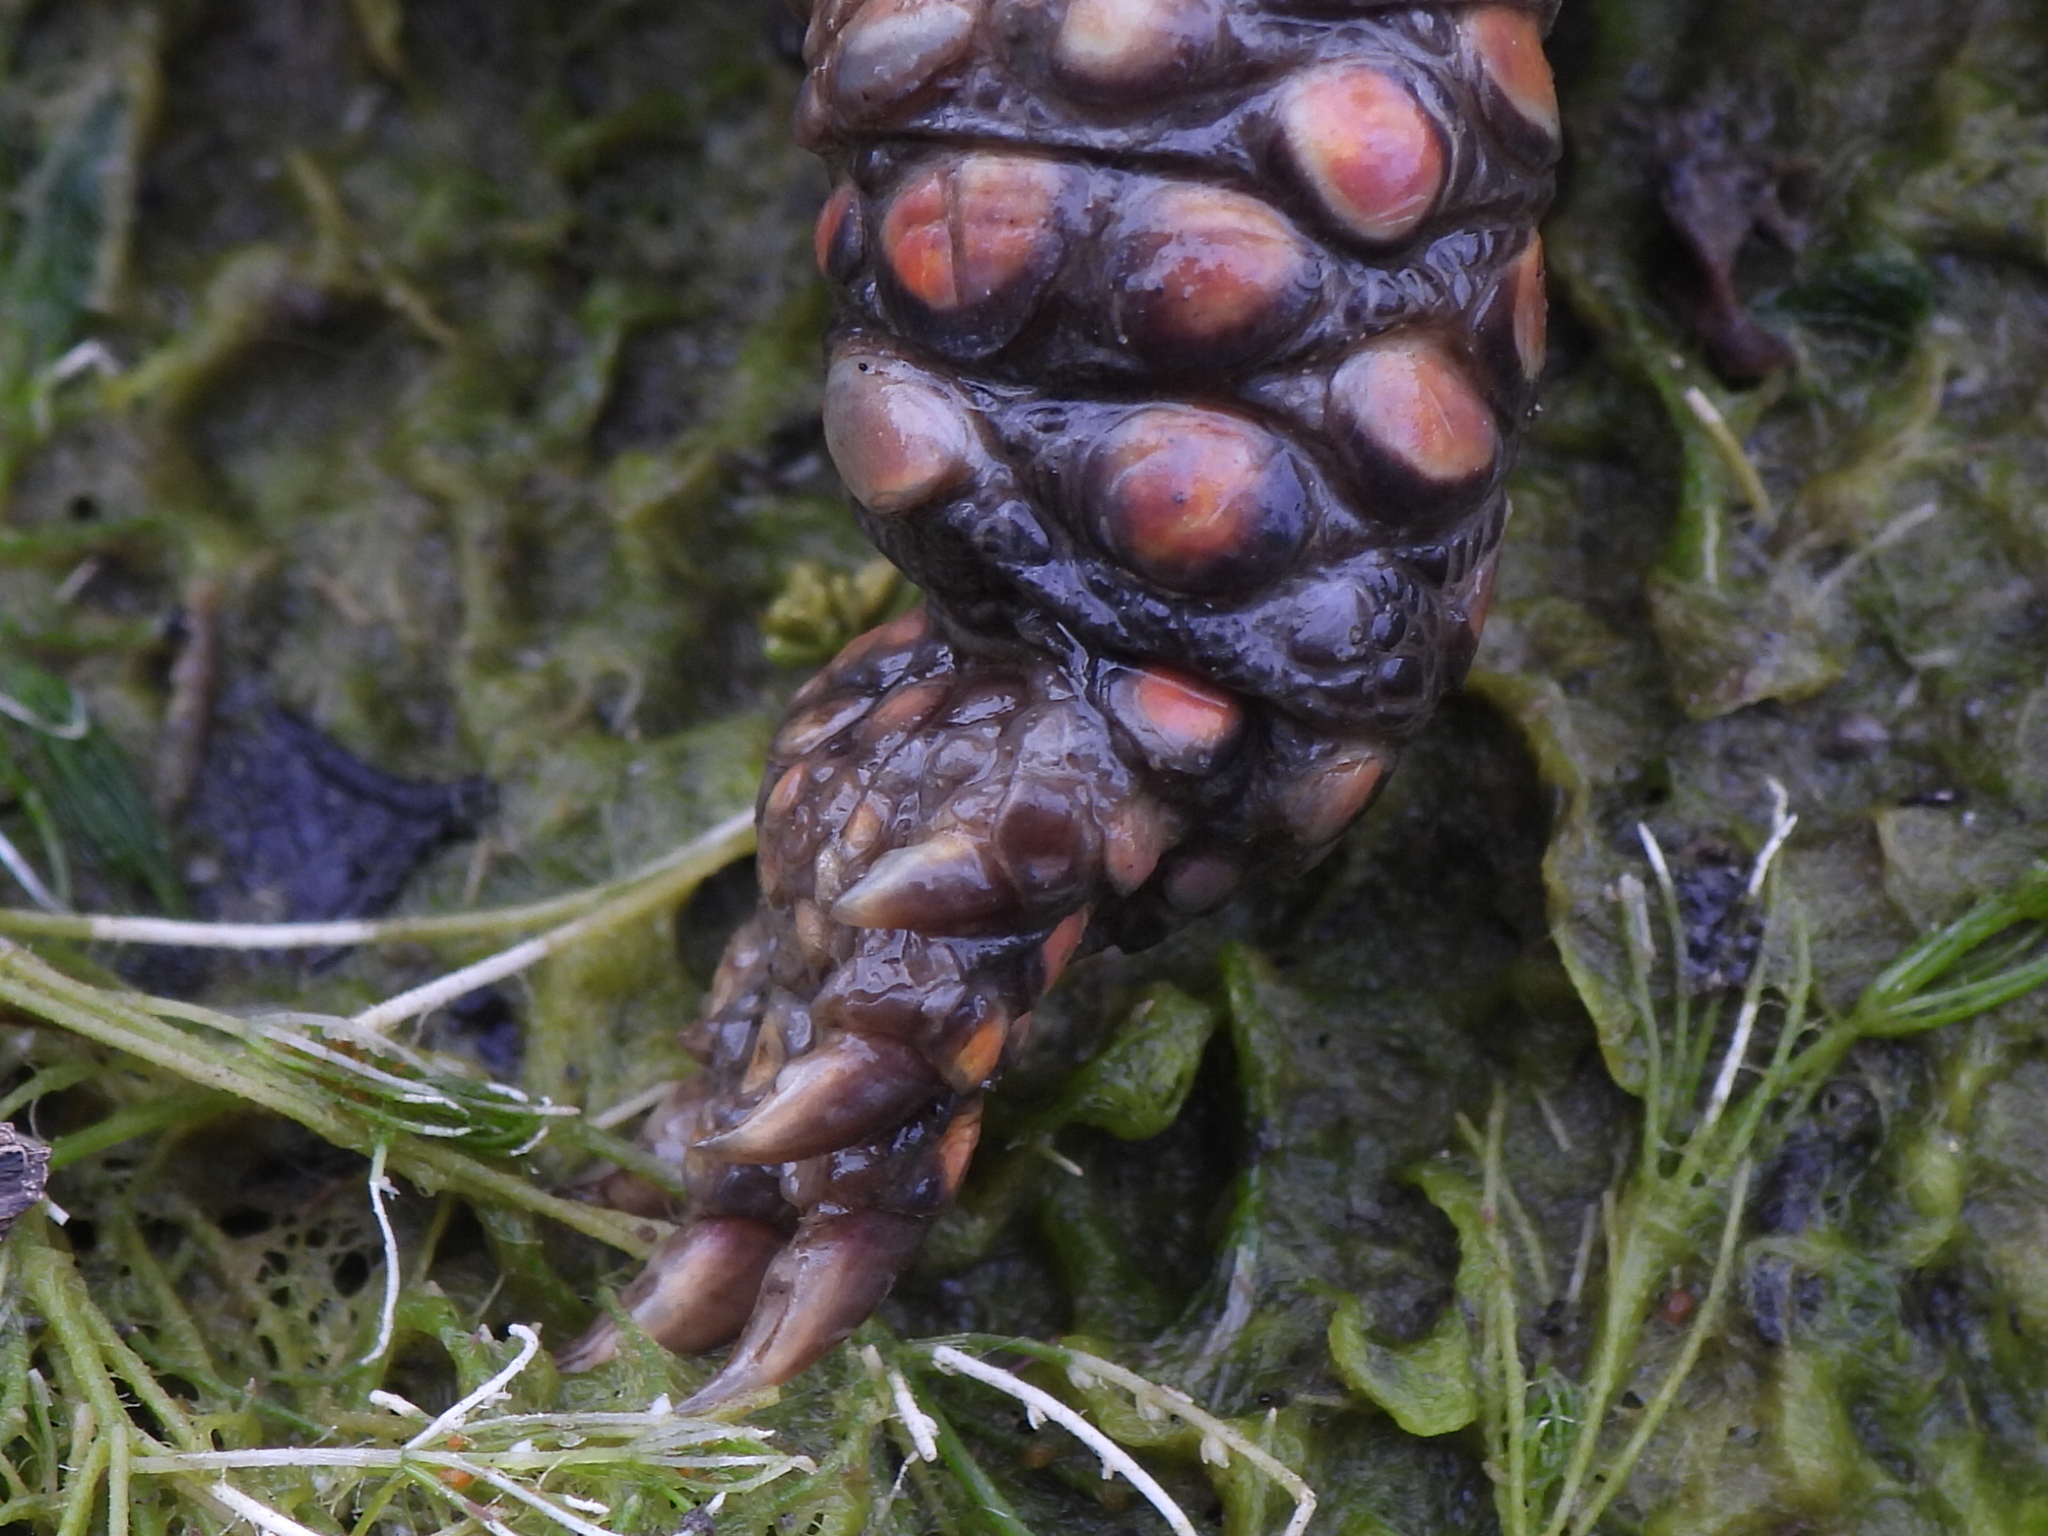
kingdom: Animalia
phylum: Chordata
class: Testudines
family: Emydidae
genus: Terrapene
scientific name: Terrapene carolina
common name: Common box turtle
